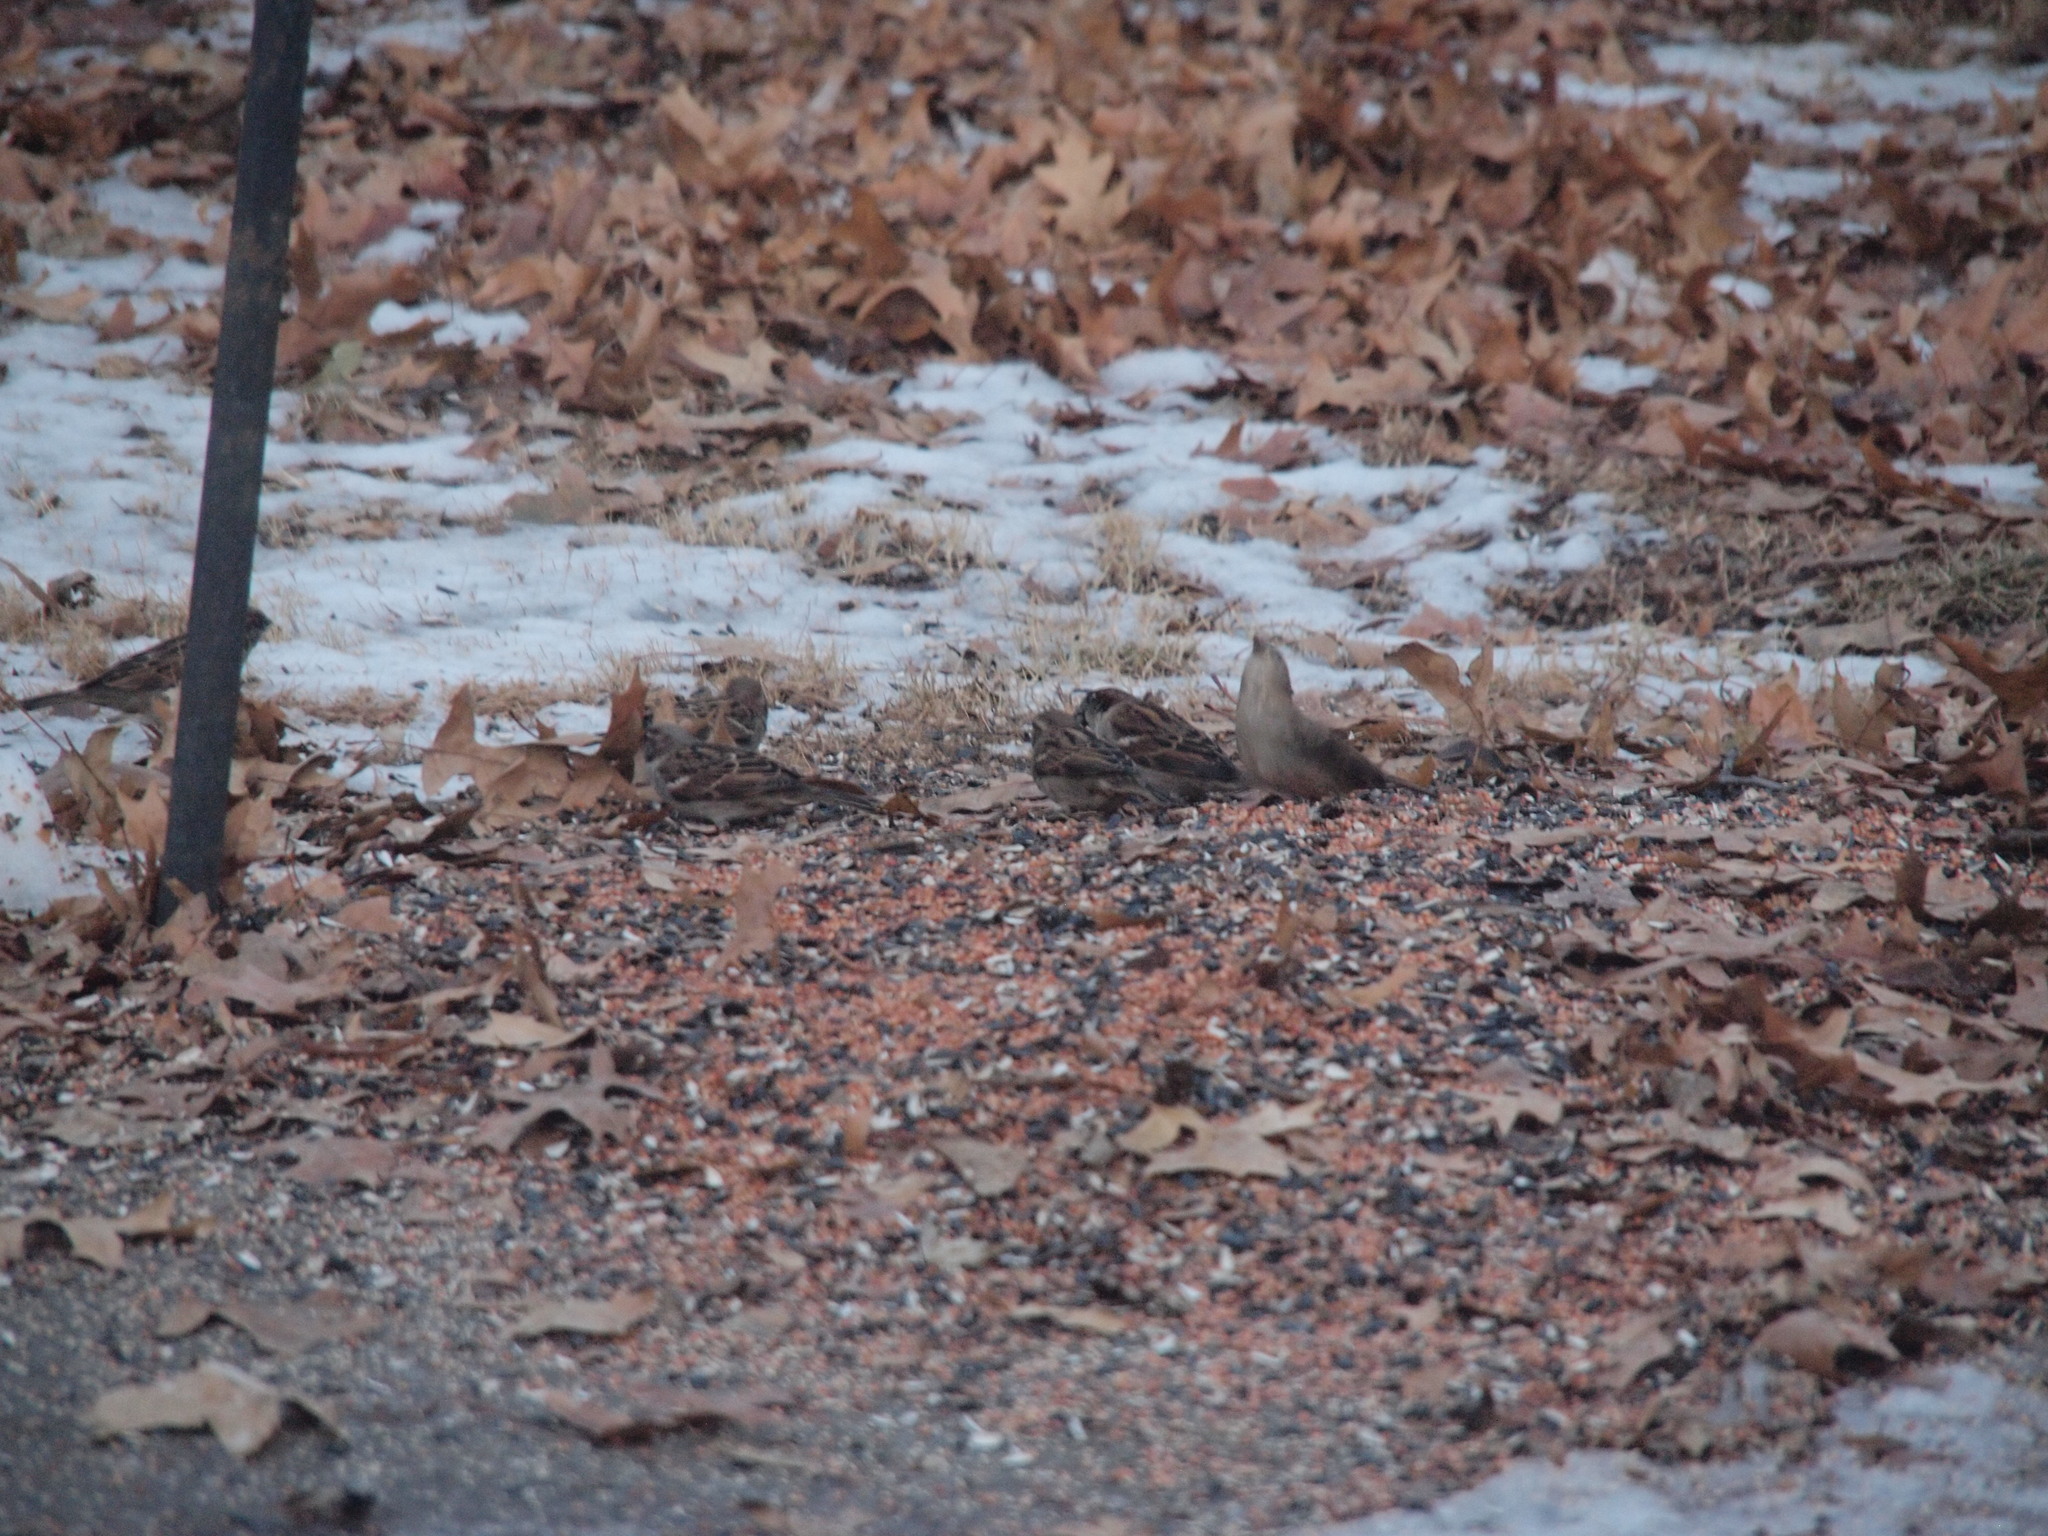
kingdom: Animalia
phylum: Chordata
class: Aves
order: Passeriformes
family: Passeridae
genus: Passer
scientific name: Passer domesticus
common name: House sparrow
